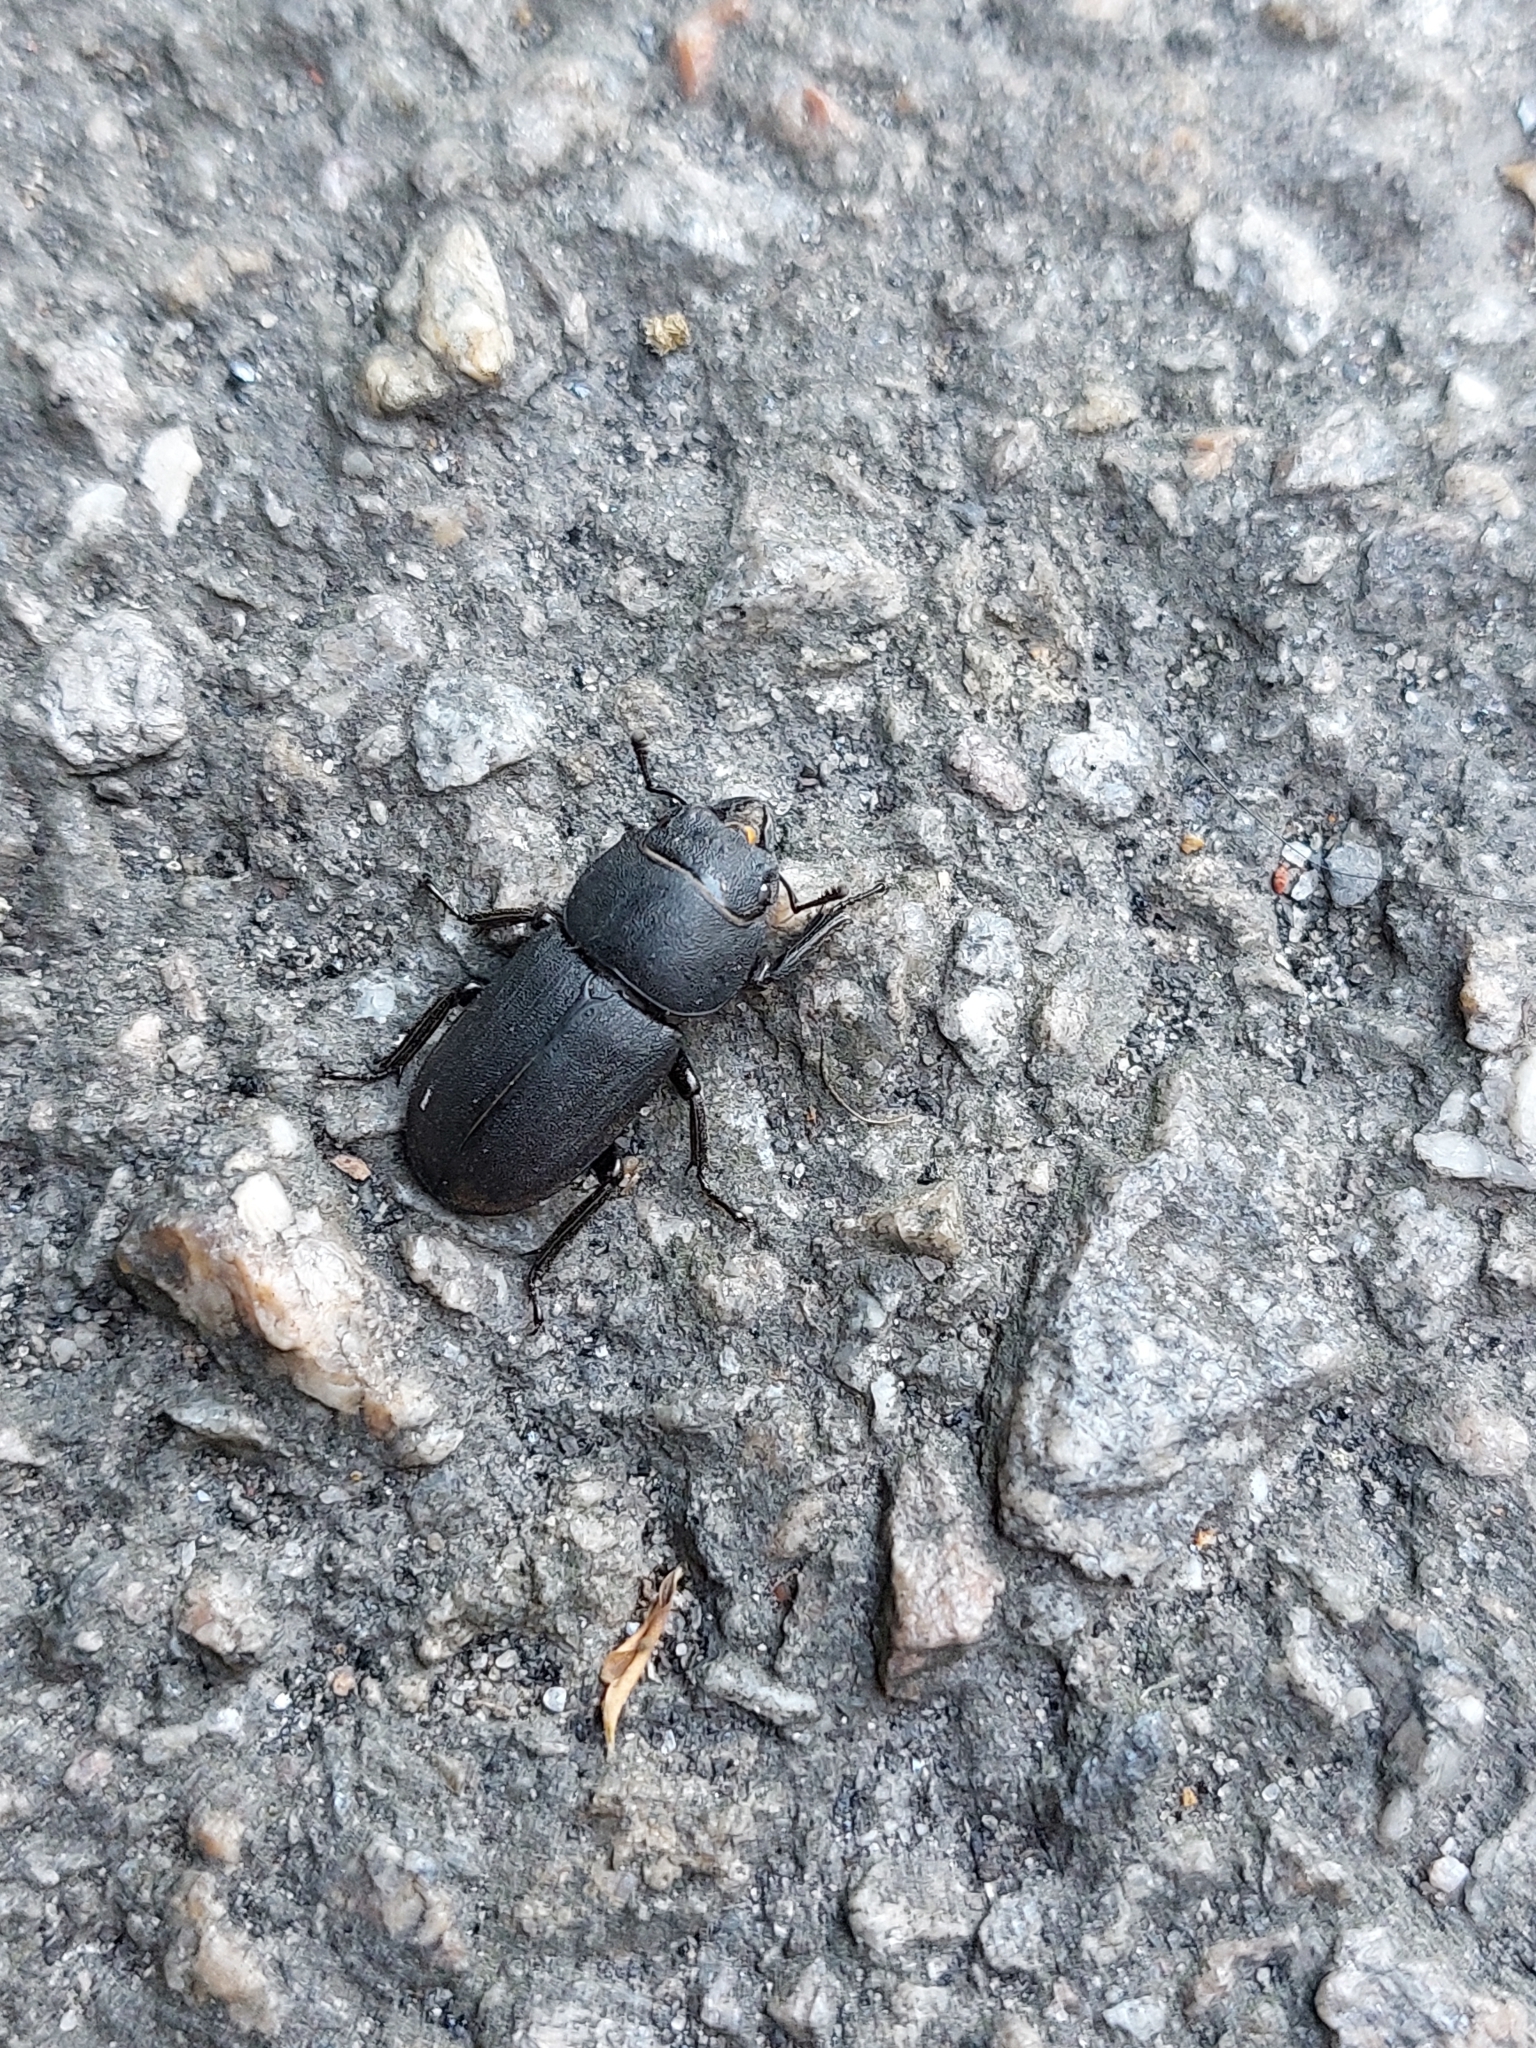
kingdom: Animalia
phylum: Arthropoda
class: Insecta
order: Coleoptera
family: Lucanidae
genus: Dorcus
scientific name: Dorcus parallelipipedus
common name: Lesser stag beetle
